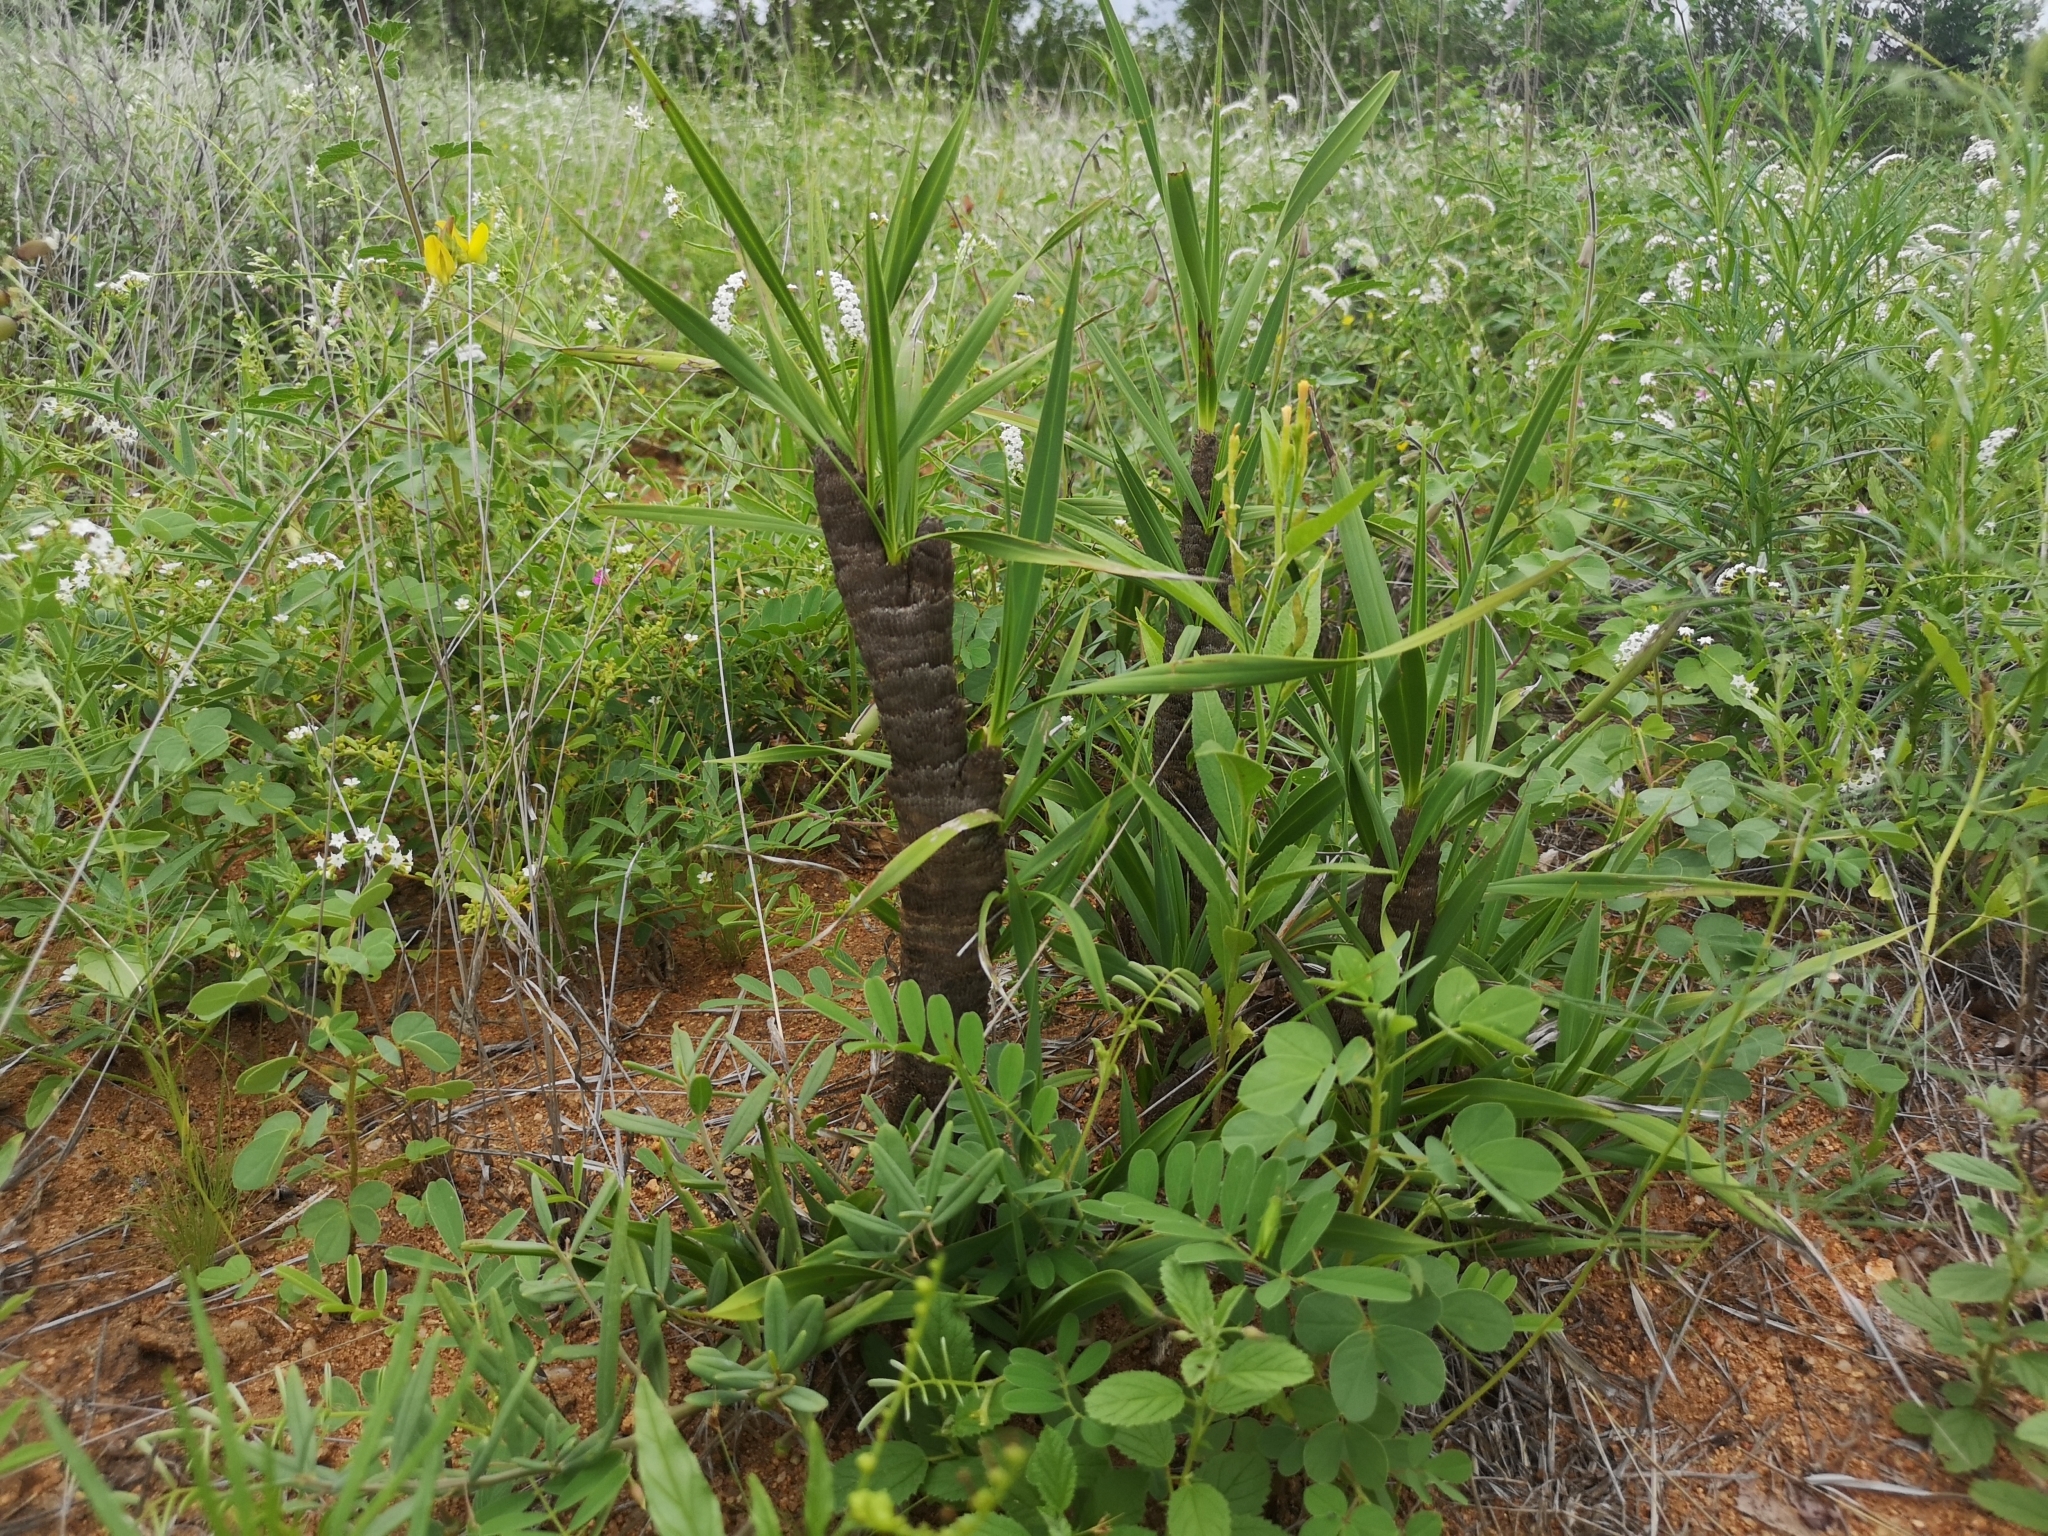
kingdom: Plantae
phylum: Tracheophyta
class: Liliopsida
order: Pandanales
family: Velloziaceae
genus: Xerophyta
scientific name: Xerophyta retinervis
